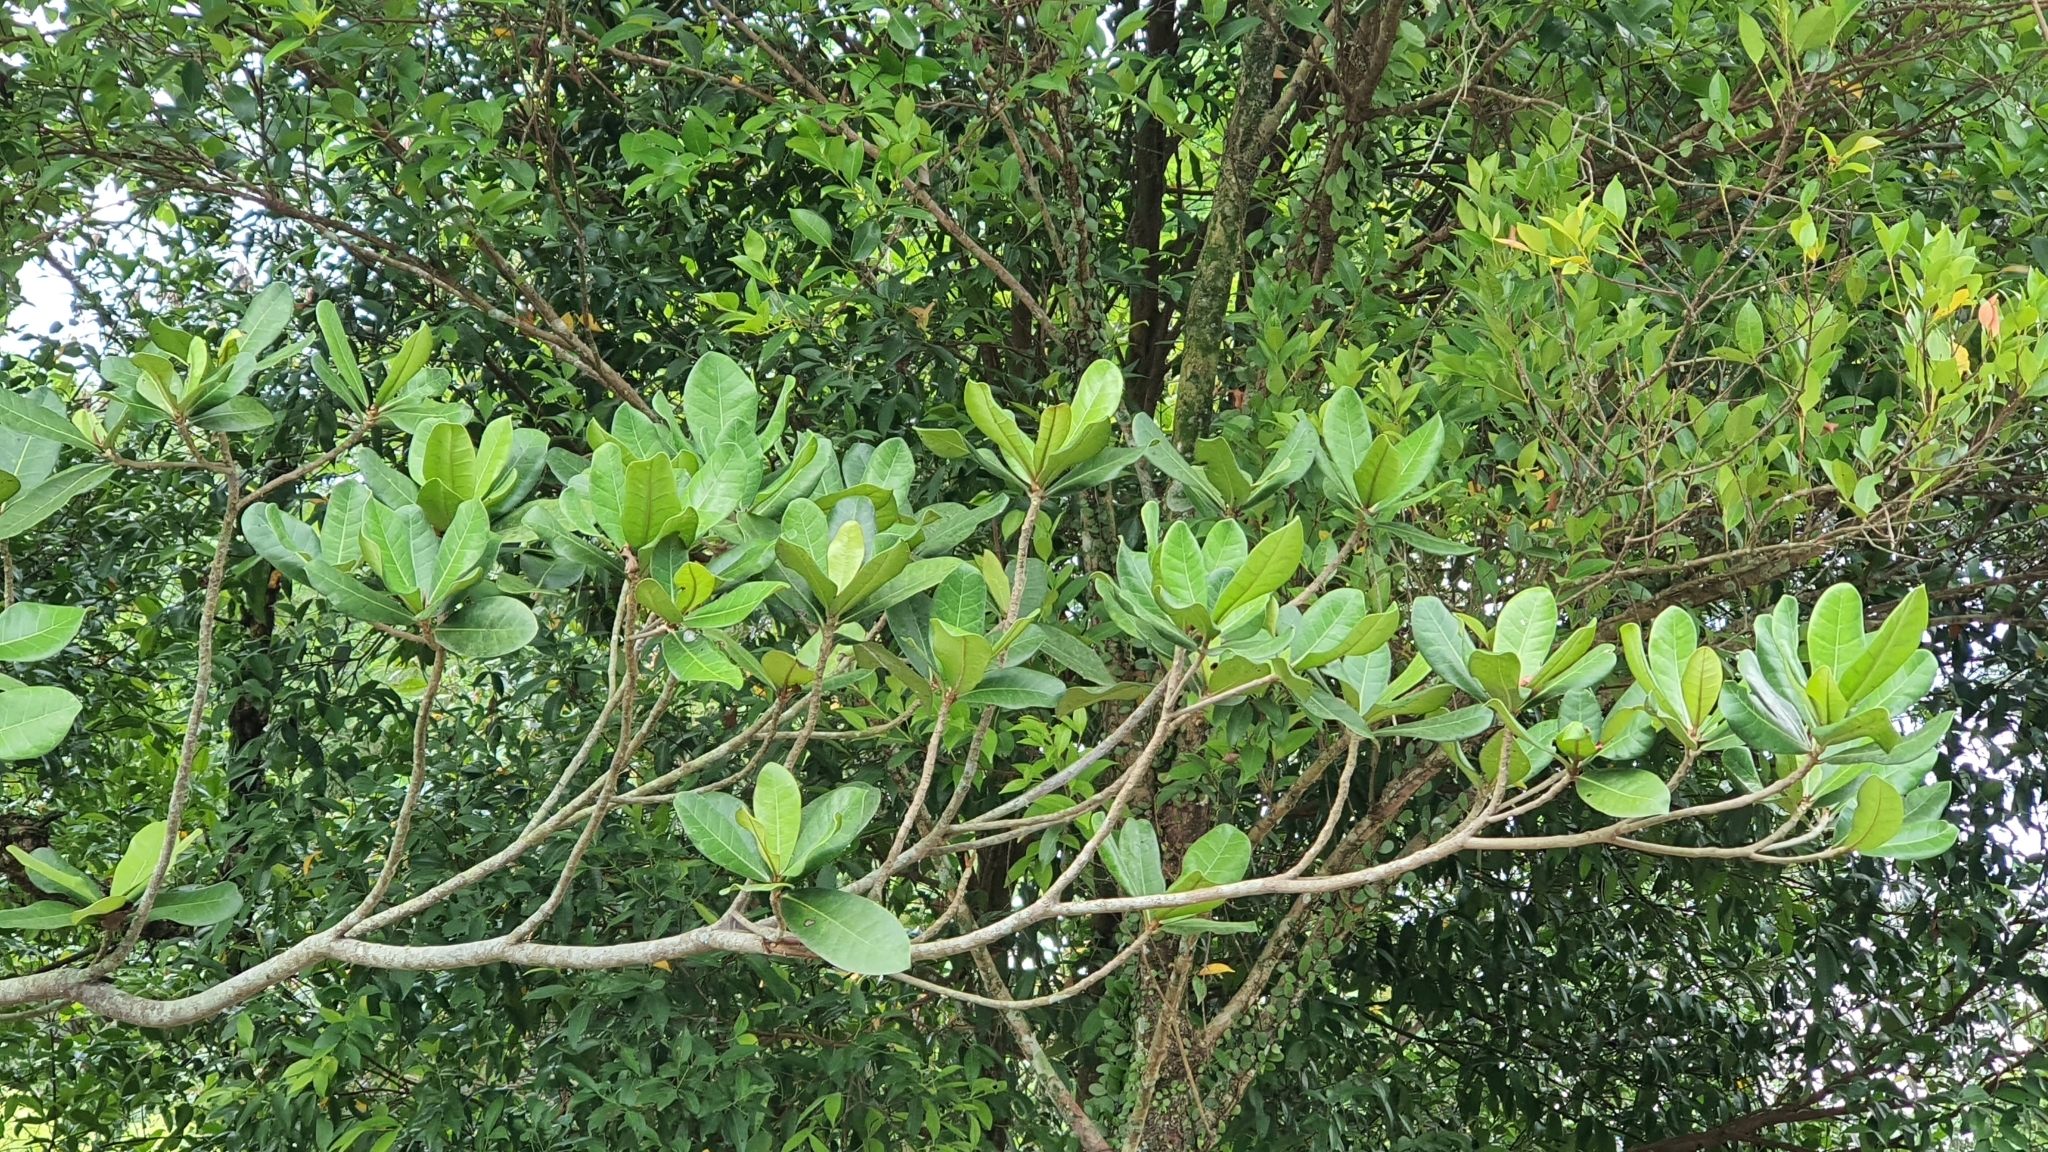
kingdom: Plantae
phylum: Tracheophyta
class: Magnoliopsida
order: Ericales
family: Lecythidaceae
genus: Barringtonia
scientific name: Barringtonia asiatica
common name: Mango-pine
